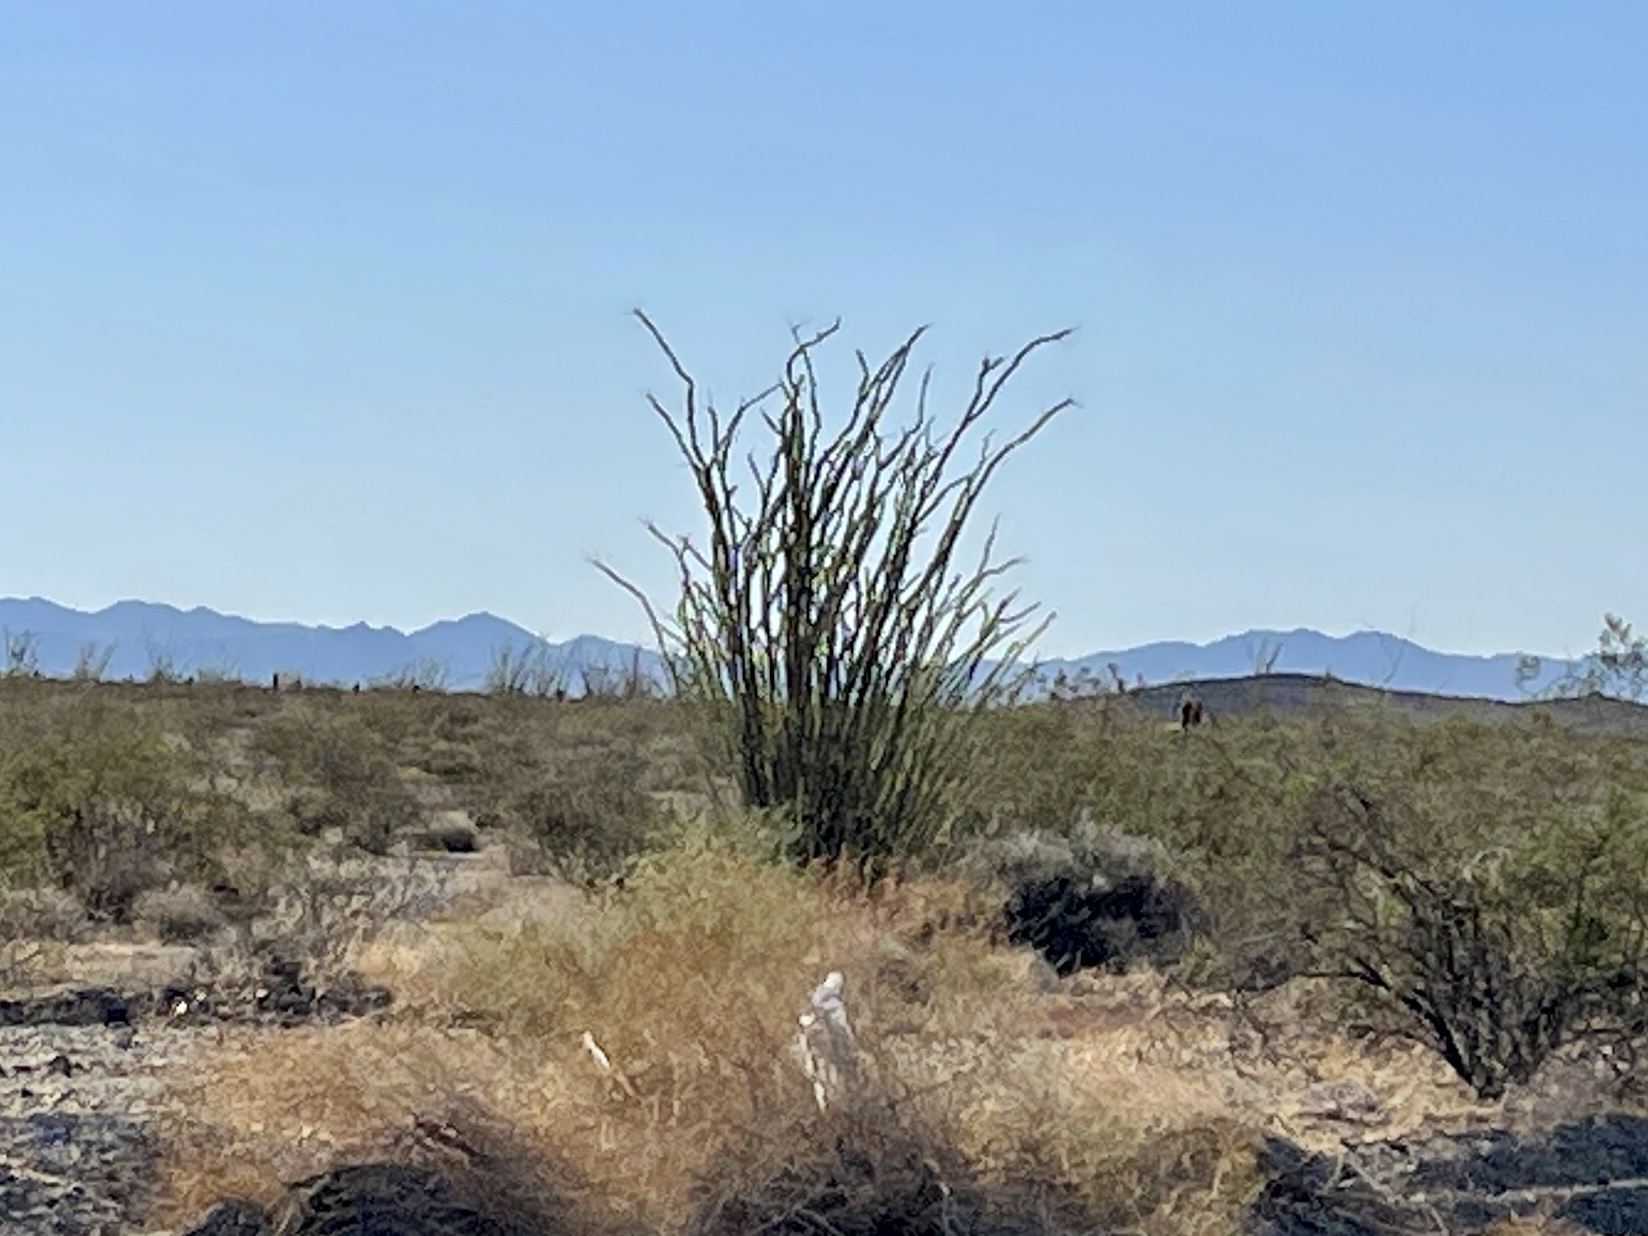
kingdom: Plantae
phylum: Tracheophyta
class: Magnoliopsida
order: Ericales
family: Fouquieriaceae
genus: Fouquieria
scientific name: Fouquieria splendens
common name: Vine-cactus
